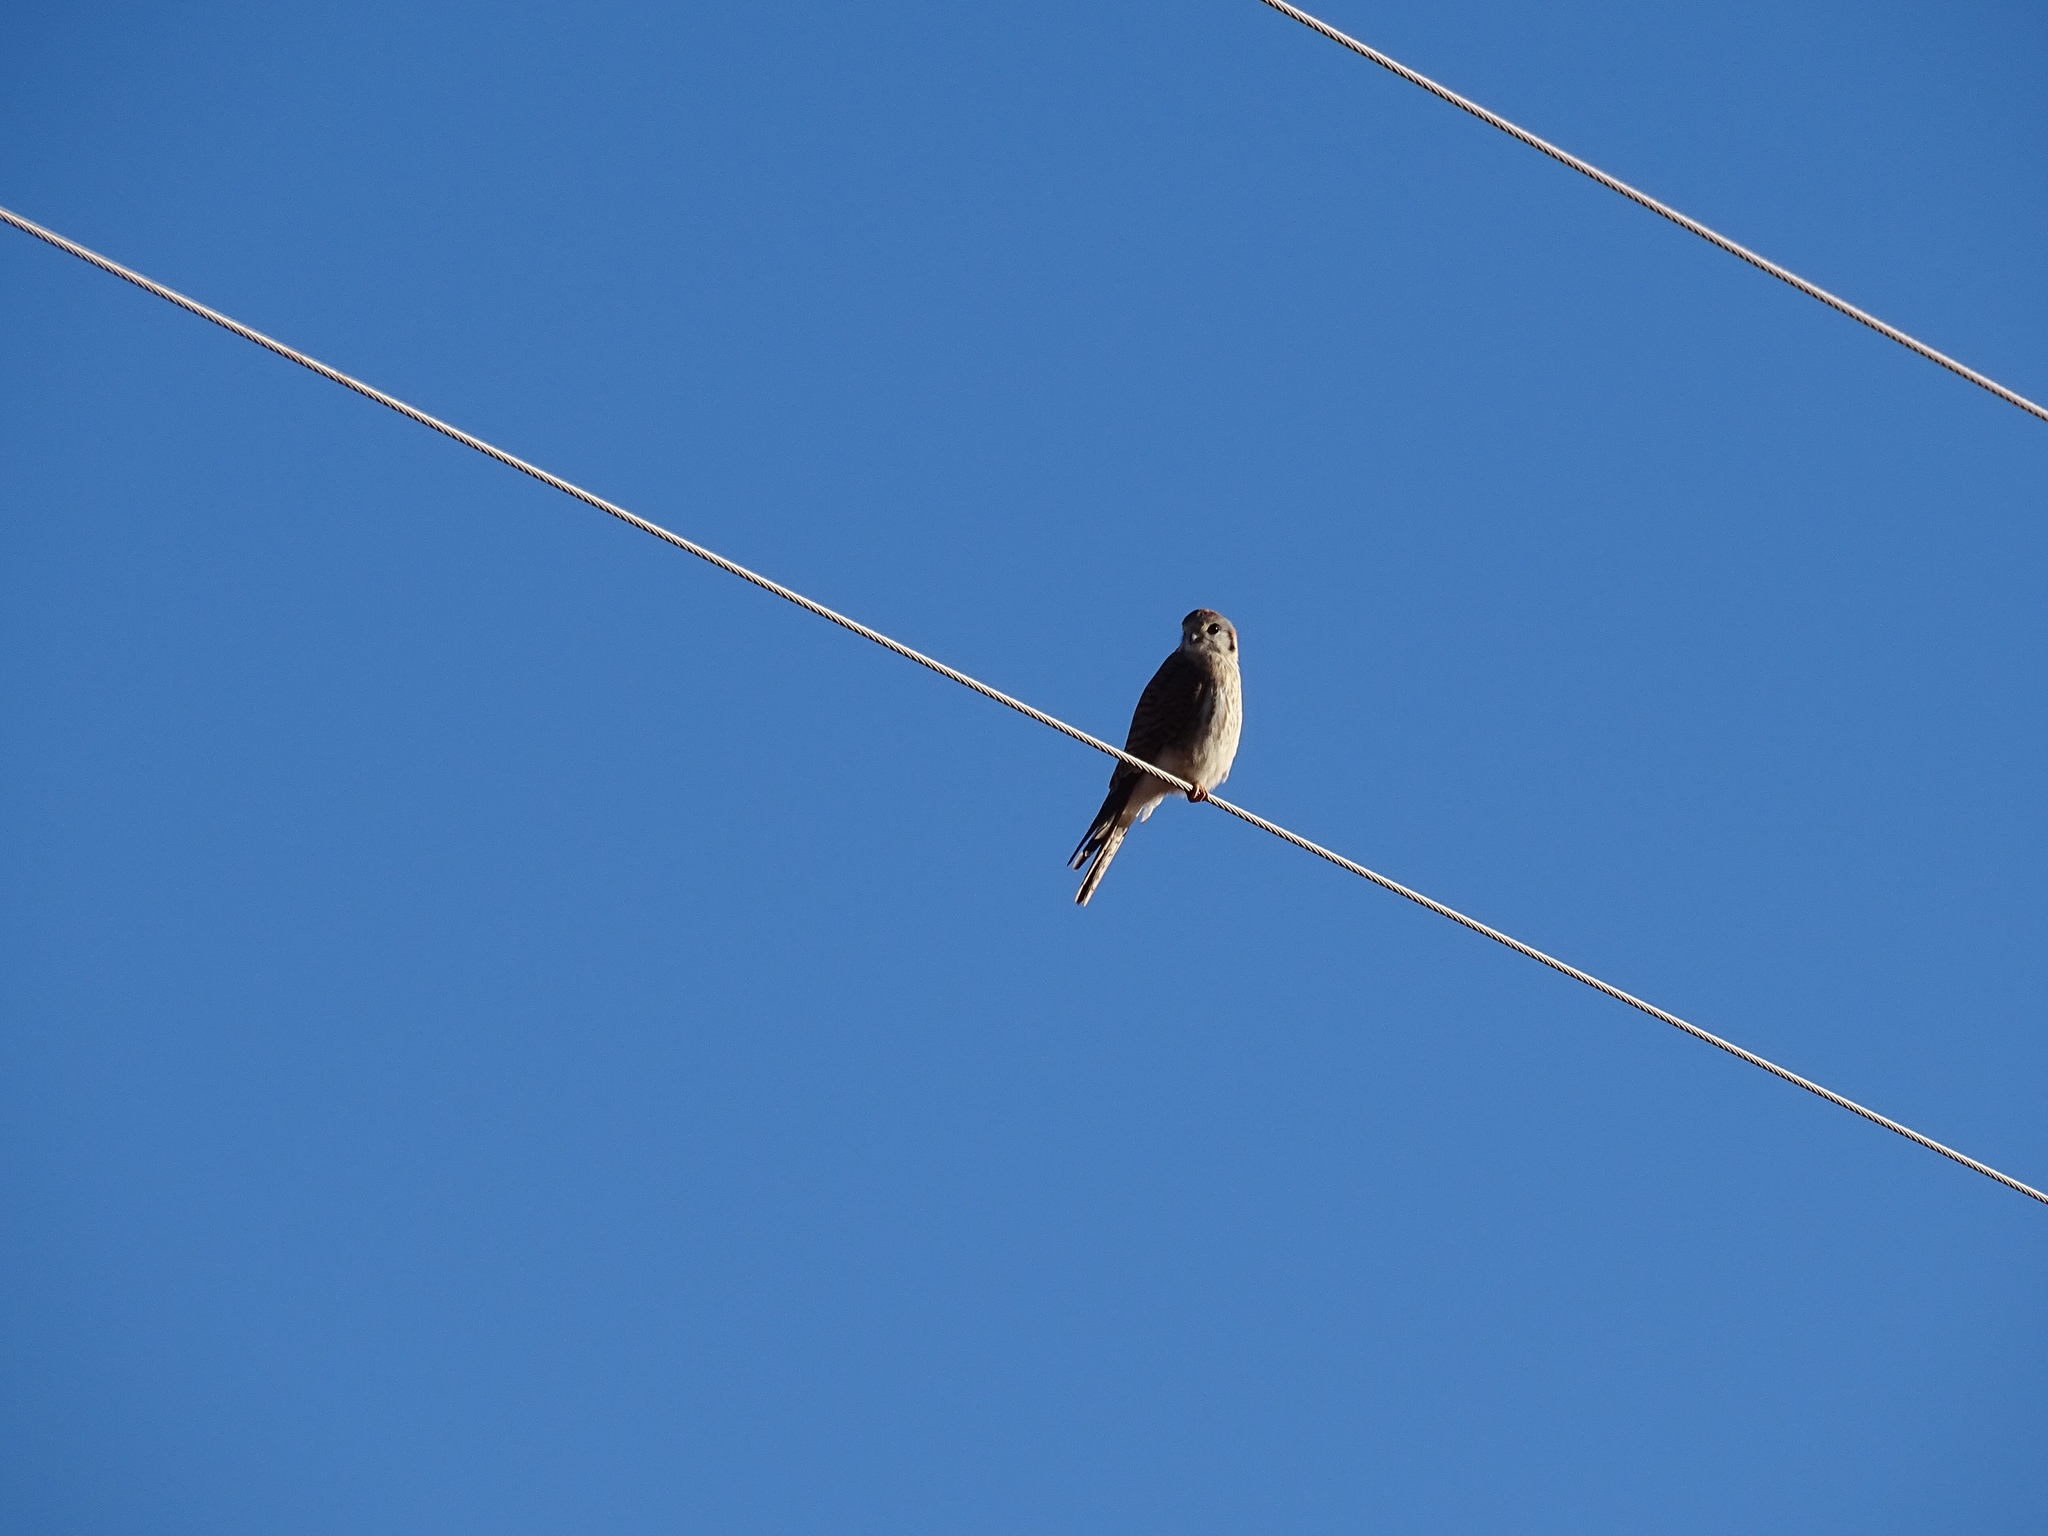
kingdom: Animalia
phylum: Chordata
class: Aves
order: Falconiformes
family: Falconidae
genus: Falco
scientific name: Falco sparverius
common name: American kestrel
